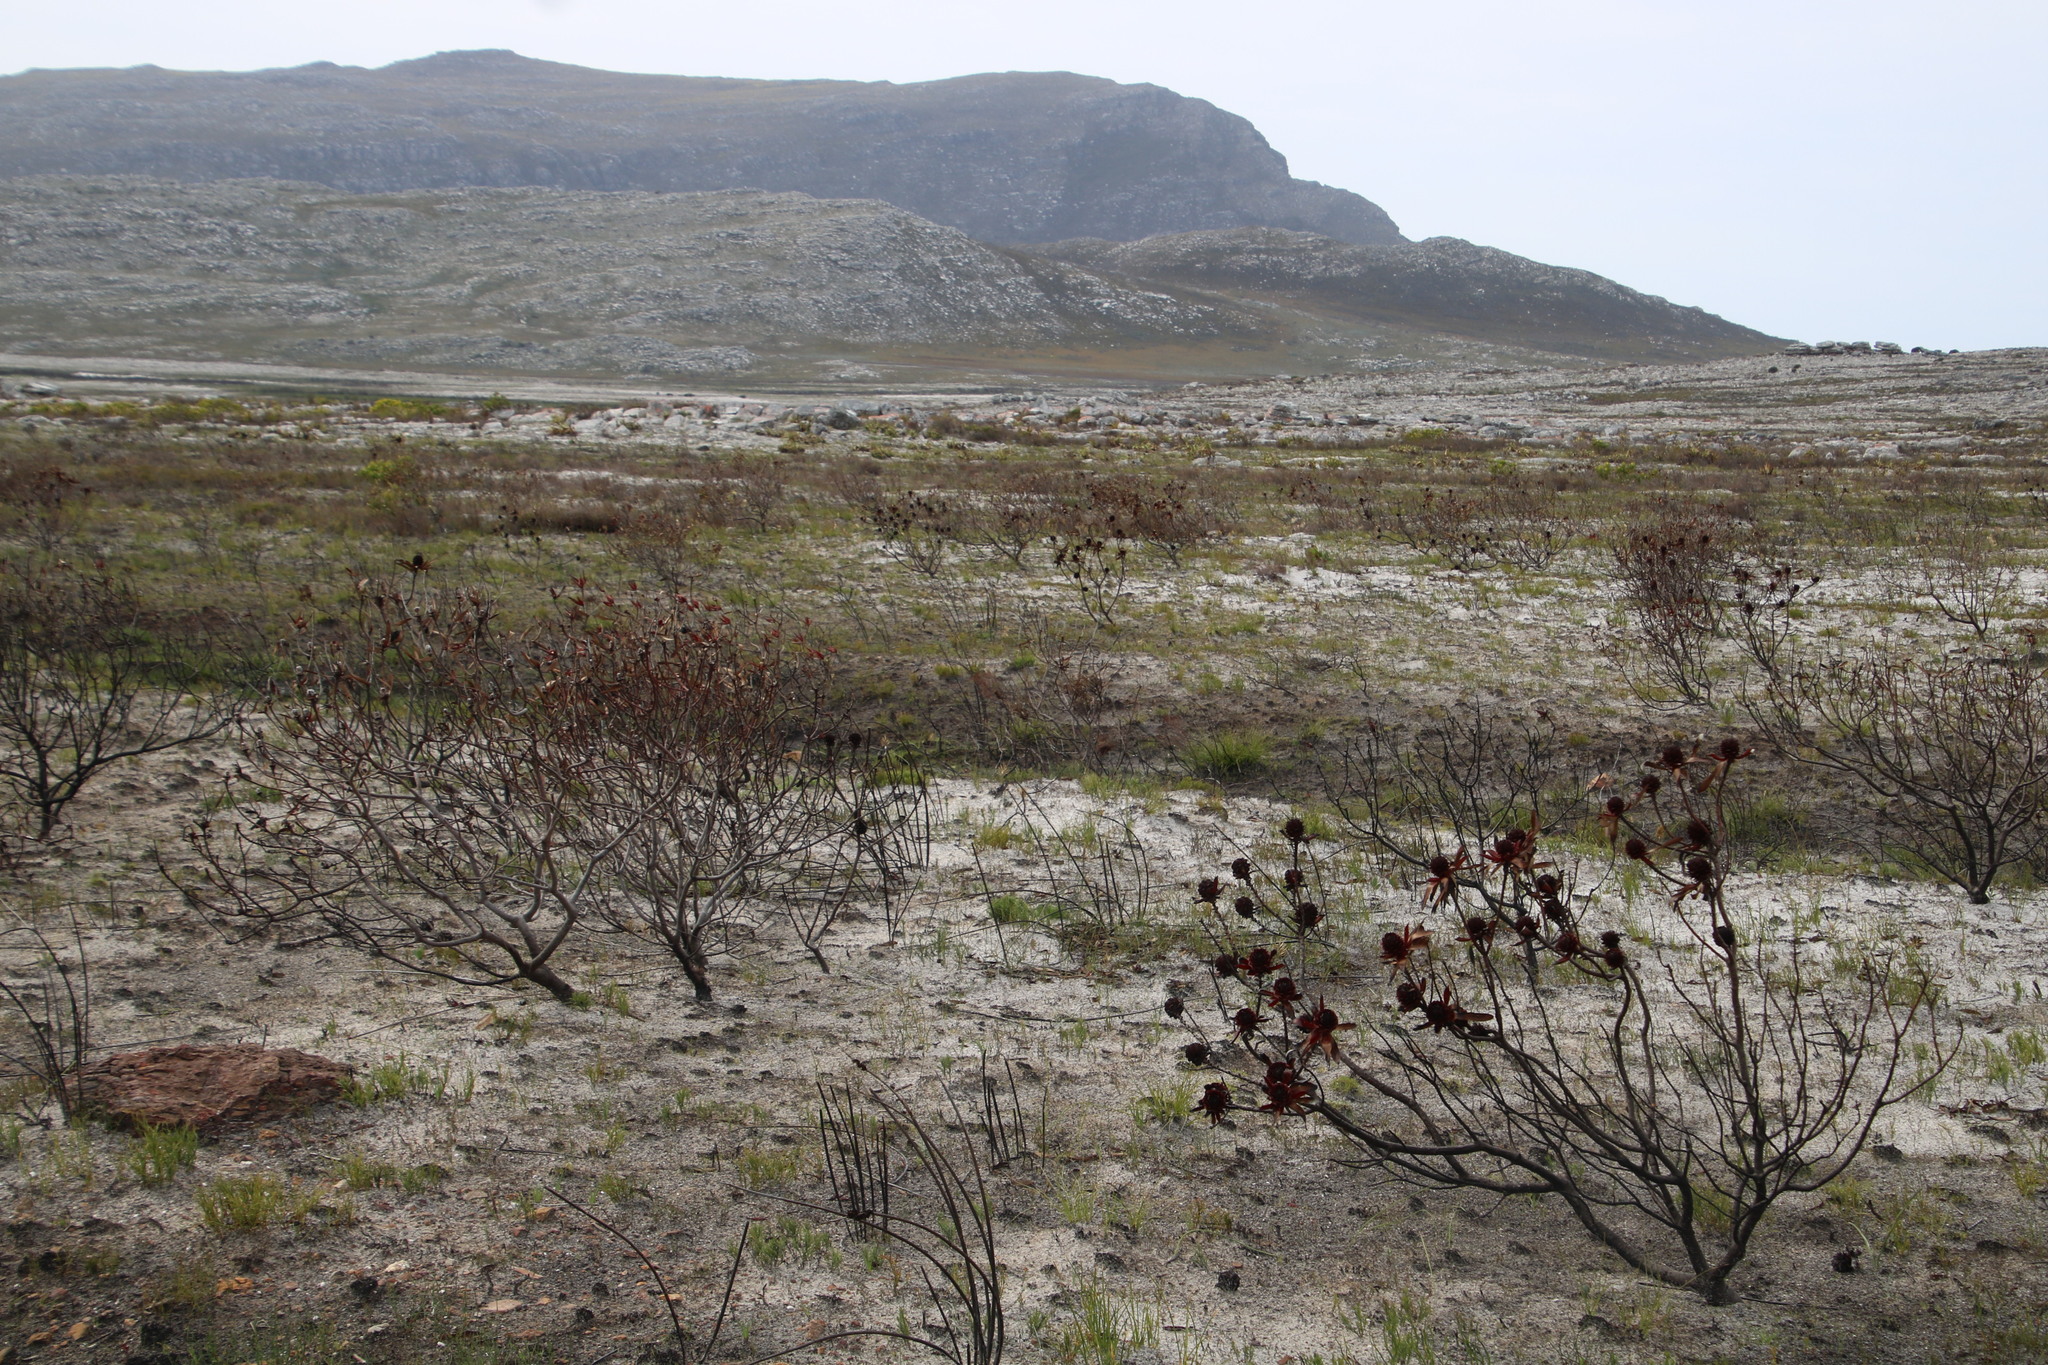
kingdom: Plantae
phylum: Tracheophyta
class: Magnoliopsida
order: Proteales
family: Proteaceae
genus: Leucadendron
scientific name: Leucadendron laureolum
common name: Golden sunshinebush
